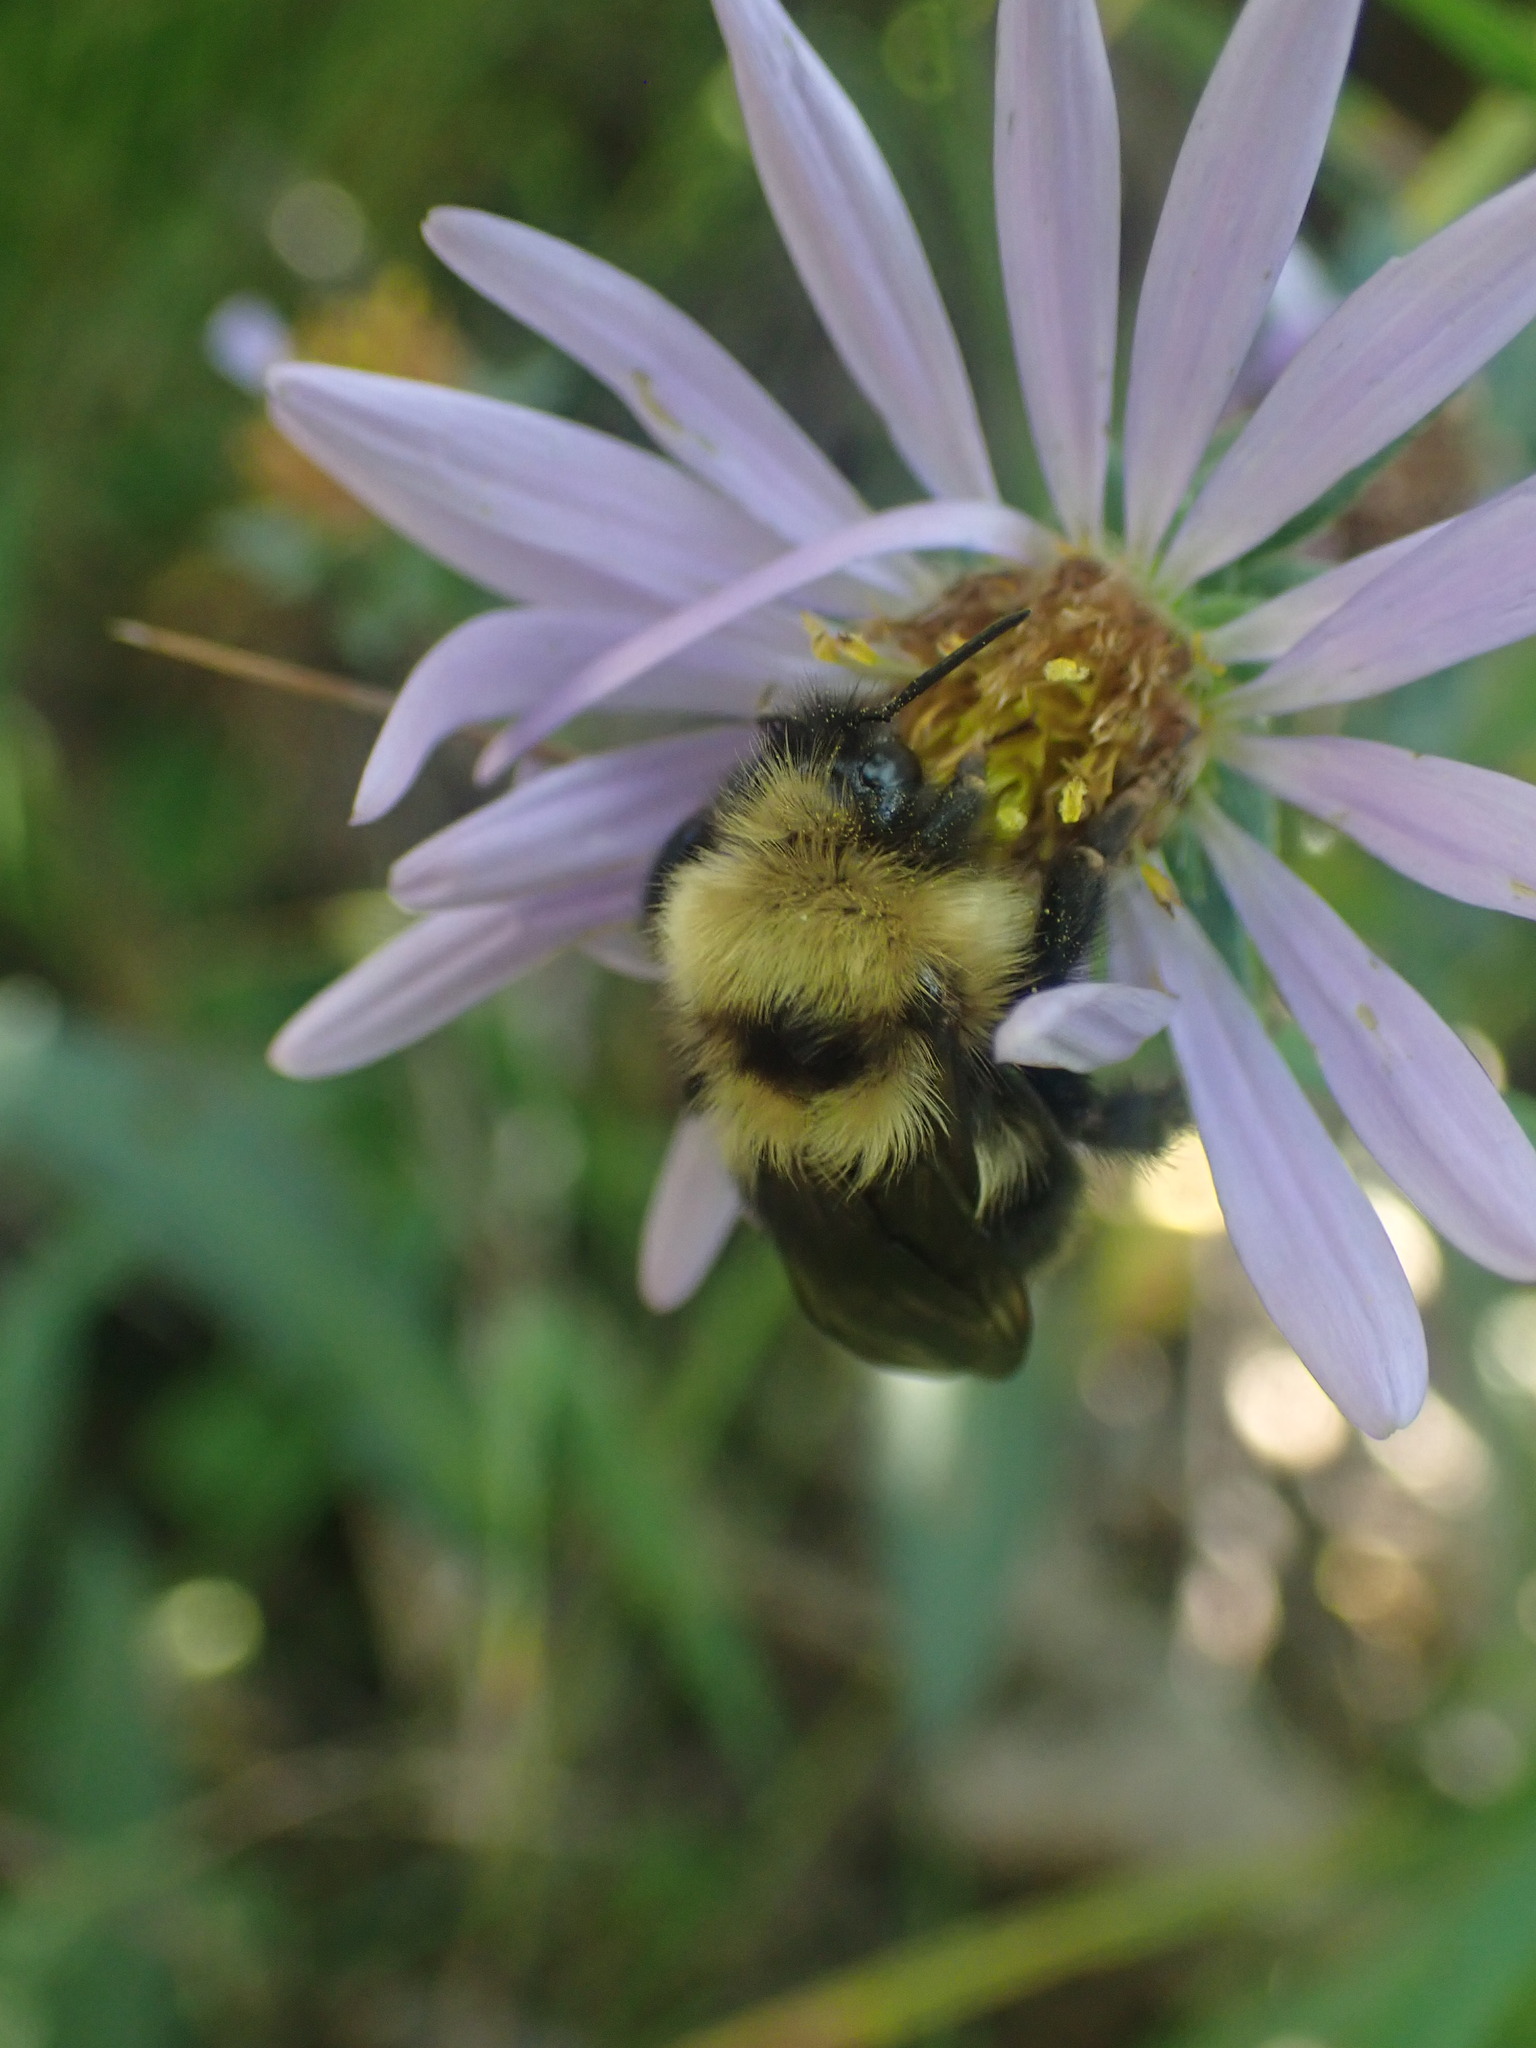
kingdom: Animalia
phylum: Arthropoda
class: Insecta
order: Hymenoptera
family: Apidae
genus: Bombus
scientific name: Bombus flavidus
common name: Fernald cuckoo bumble bee
